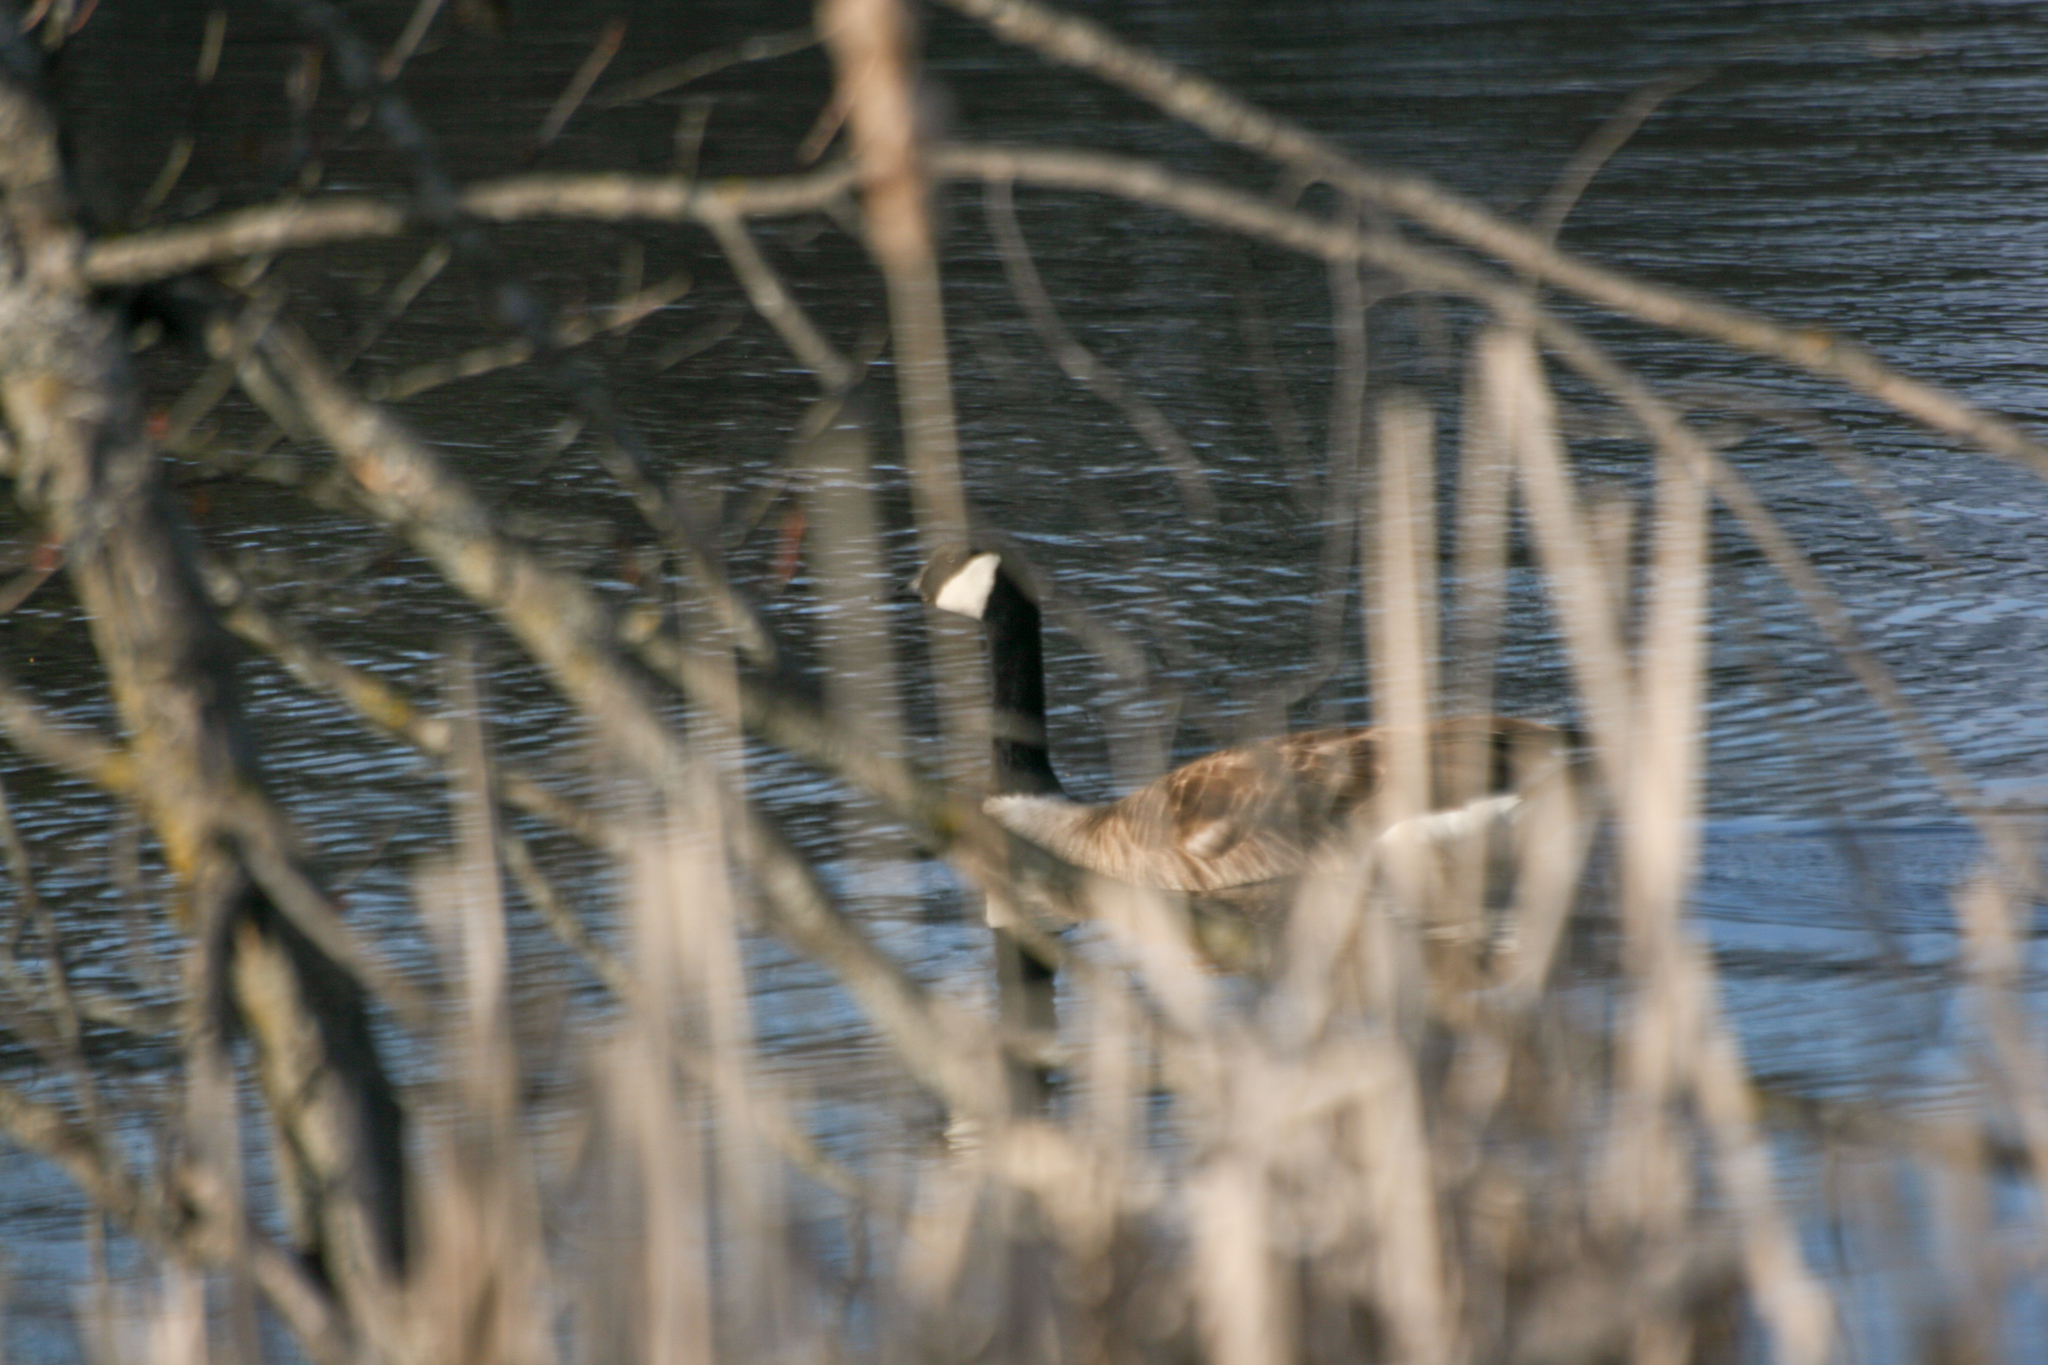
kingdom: Animalia
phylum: Chordata
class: Aves
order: Anseriformes
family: Anatidae
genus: Branta
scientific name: Branta canadensis
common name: Canada goose
